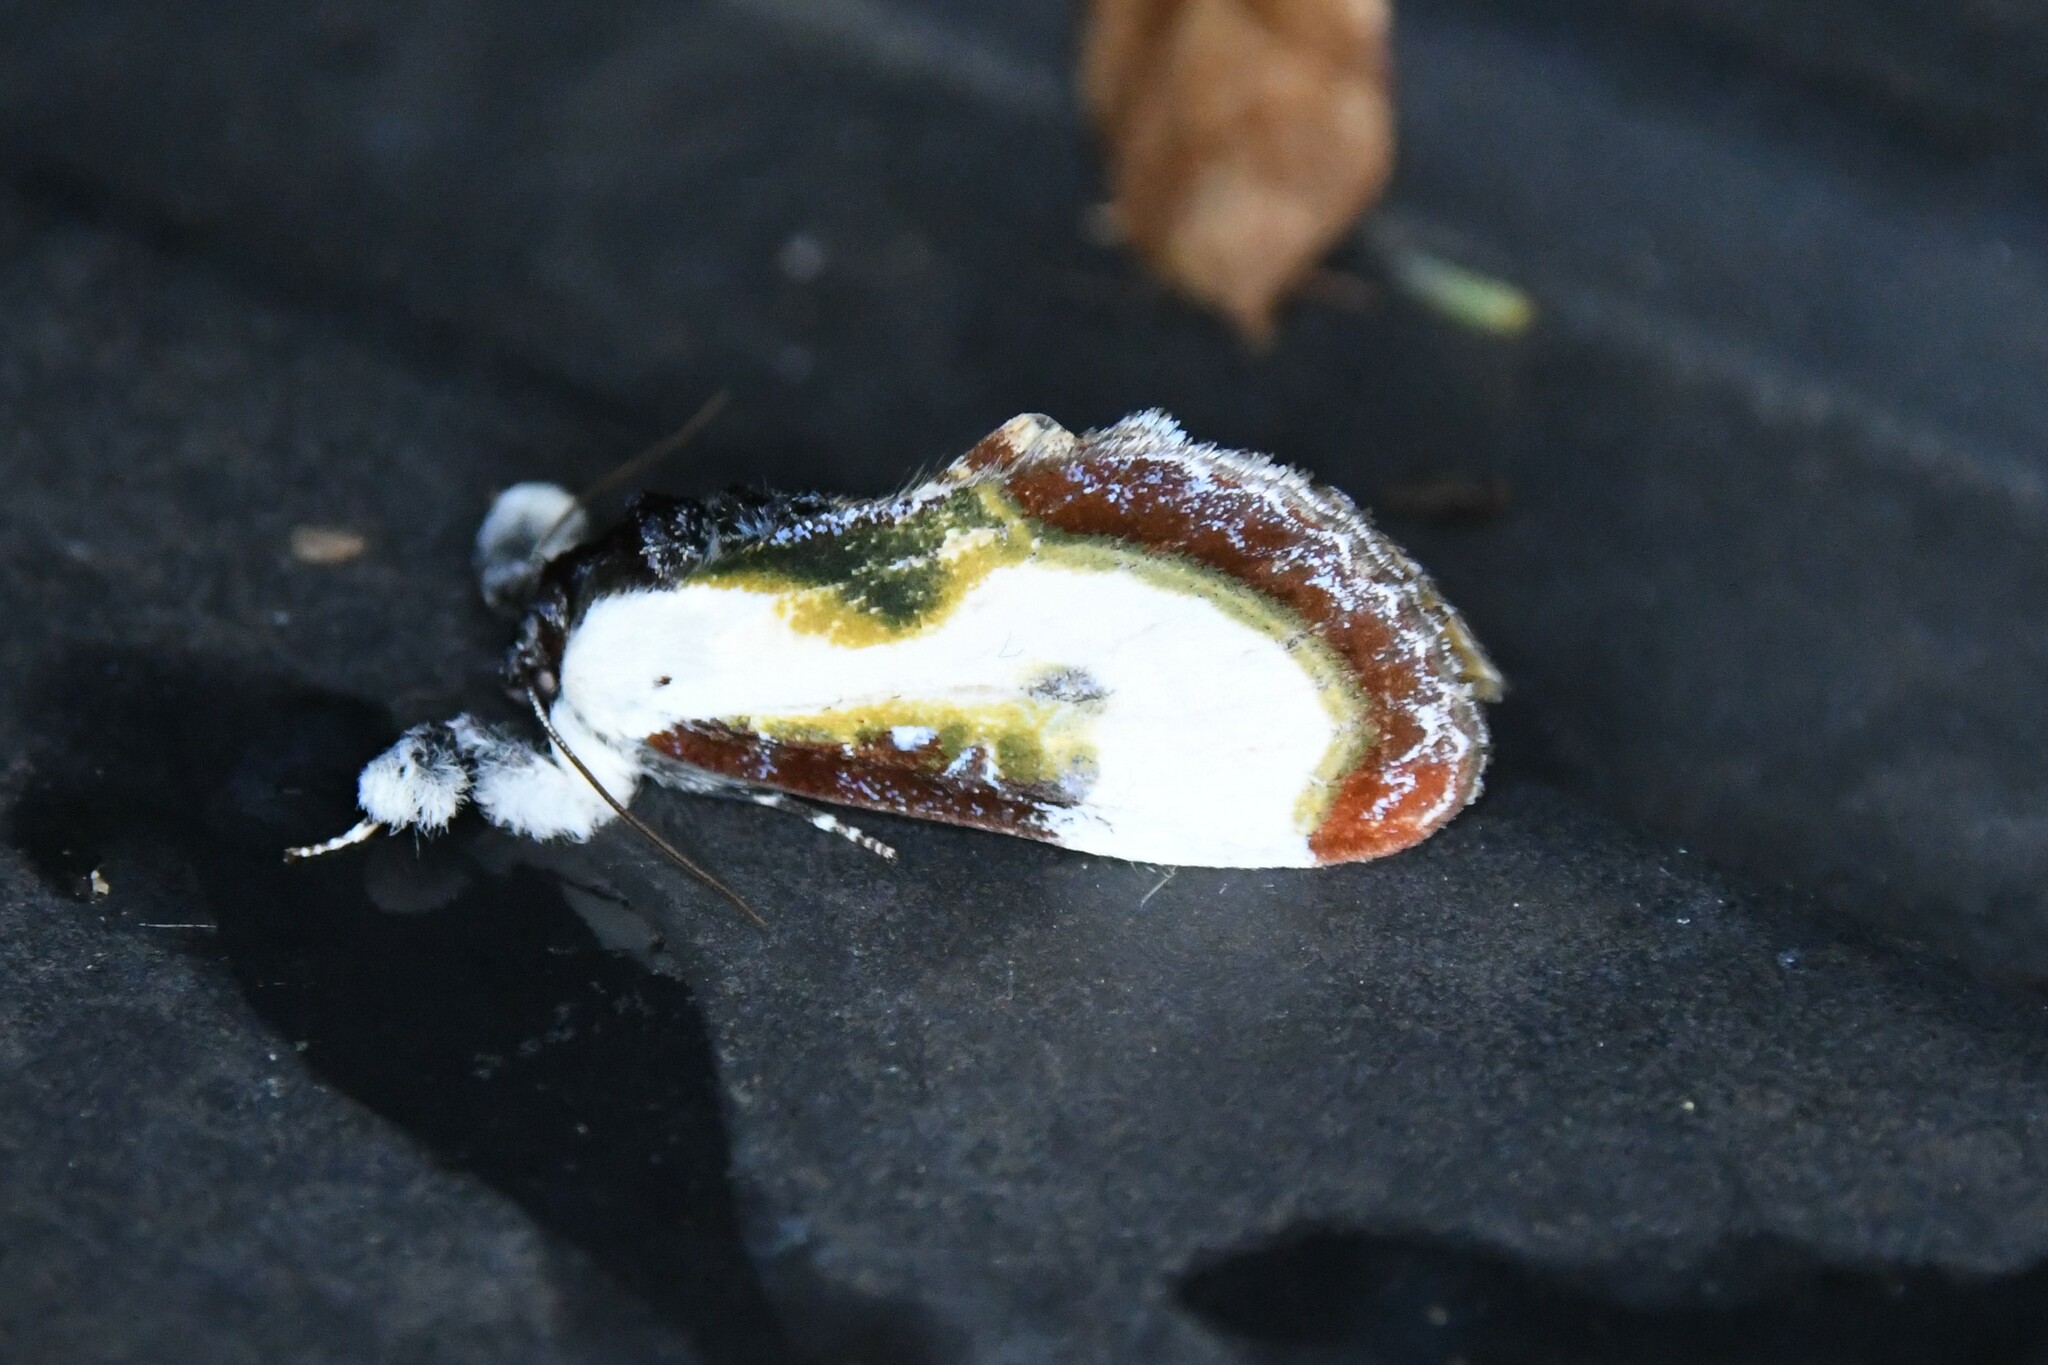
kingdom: Animalia
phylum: Arthropoda
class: Insecta
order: Lepidoptera
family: Noctuidae
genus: Eudryas
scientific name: Eudryas grata
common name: Beautiful wood-nymph
